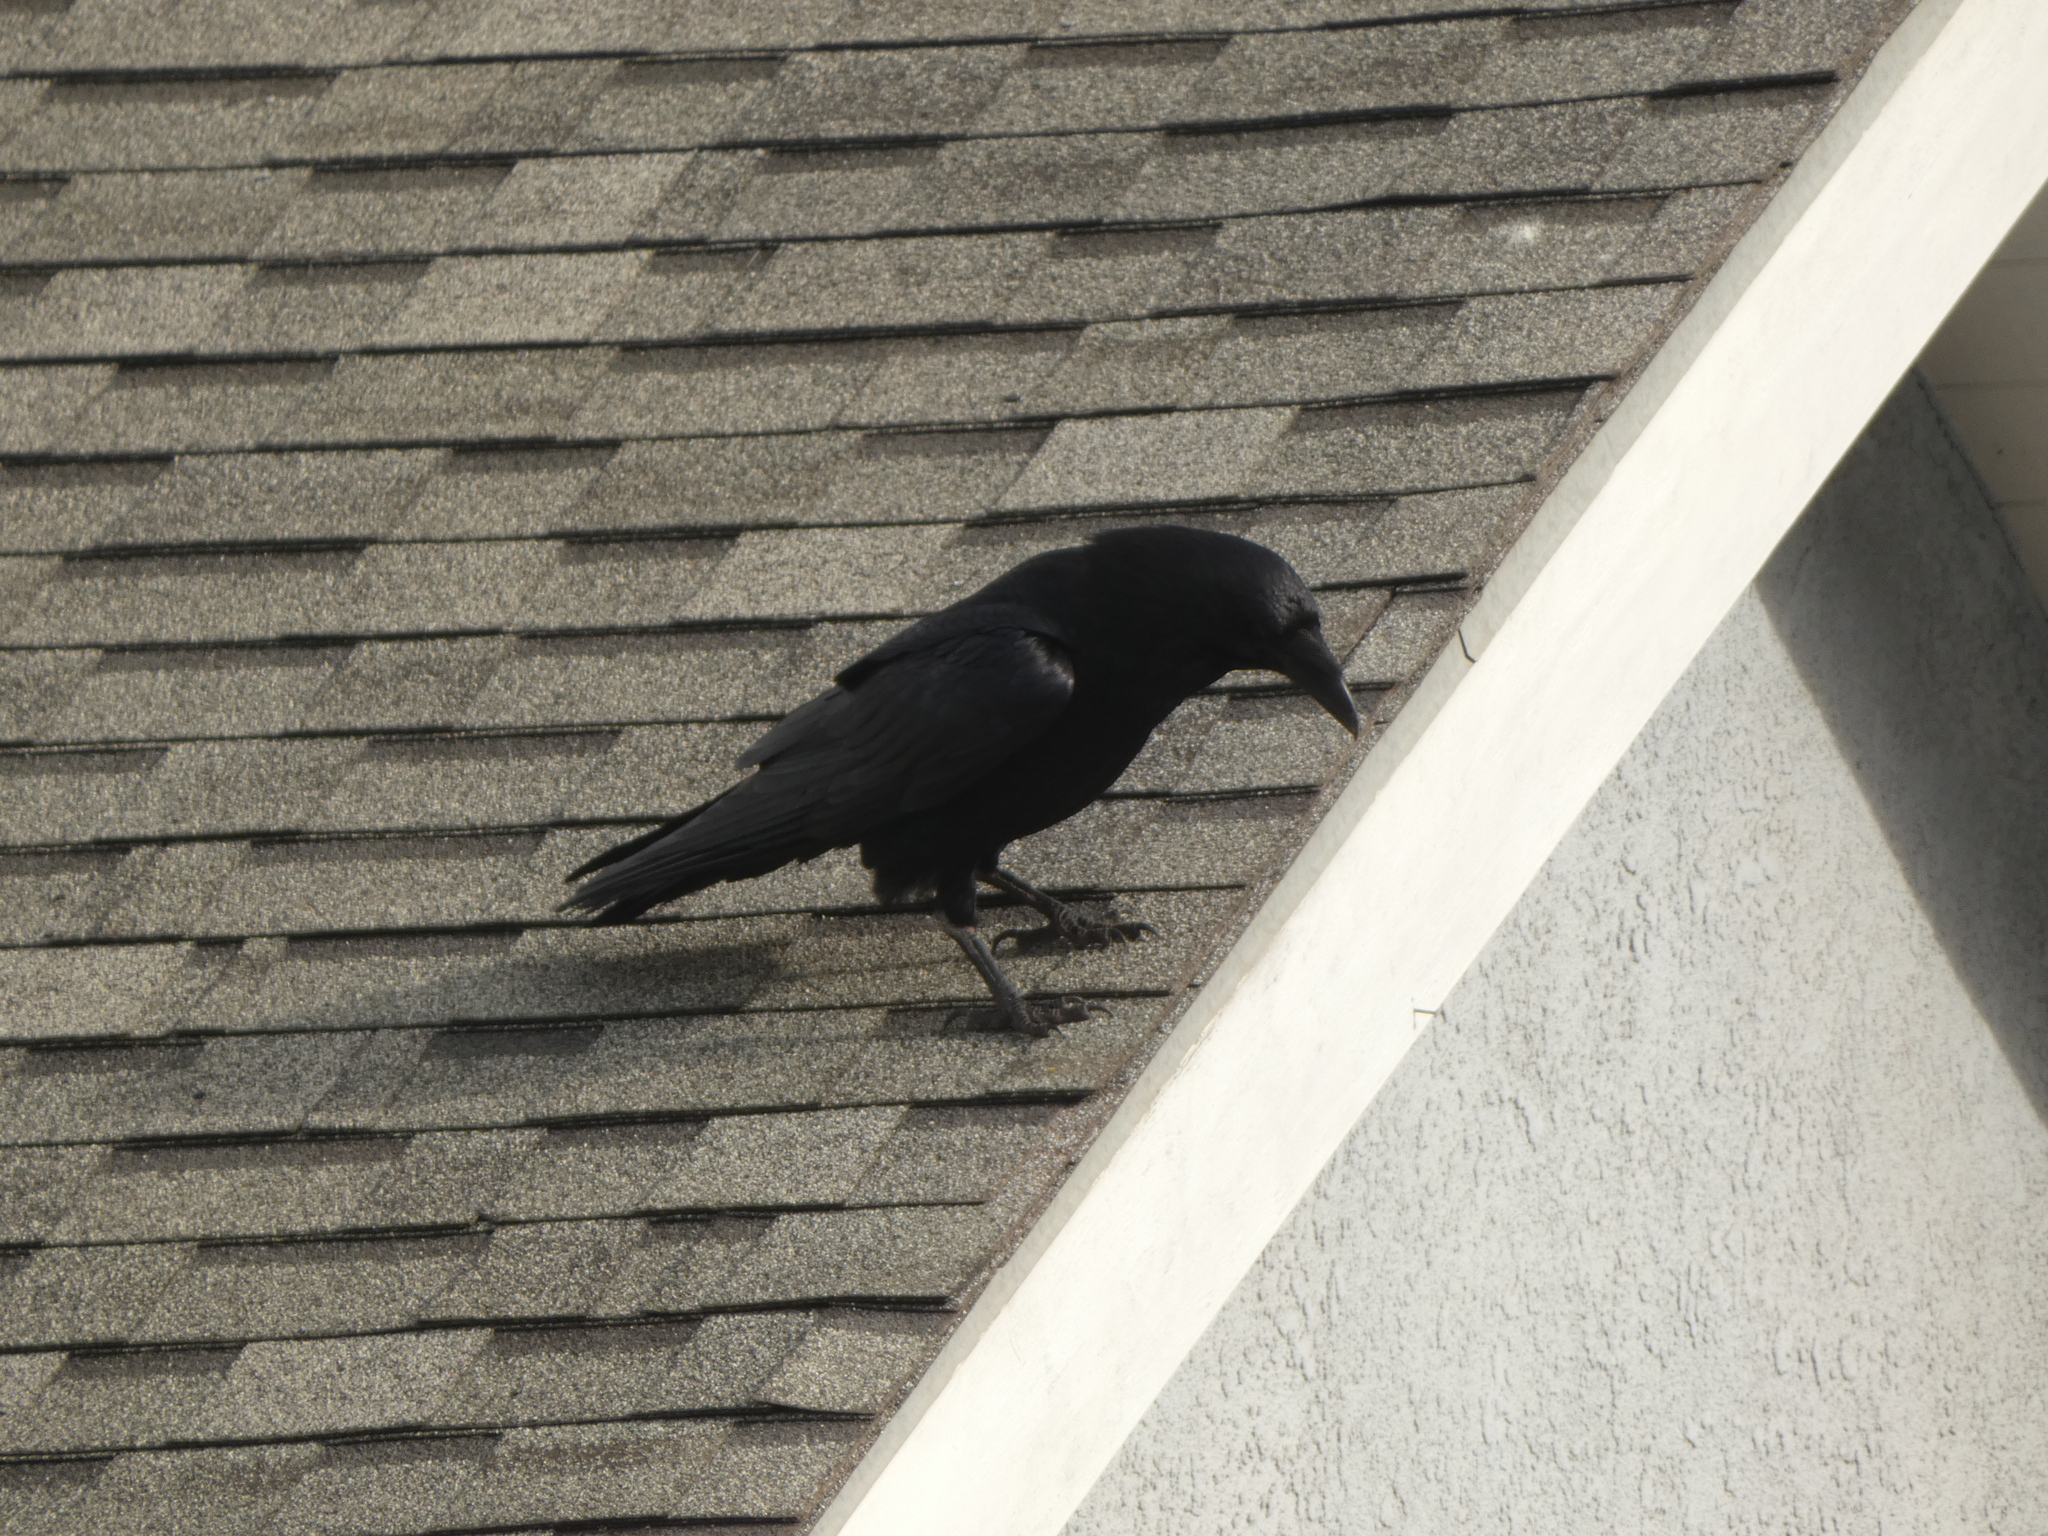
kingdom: Animalia
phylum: Chordata
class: Aves
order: Passeriformes
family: Corvidae
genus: Corvus
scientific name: Corvus corax
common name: Common raven
